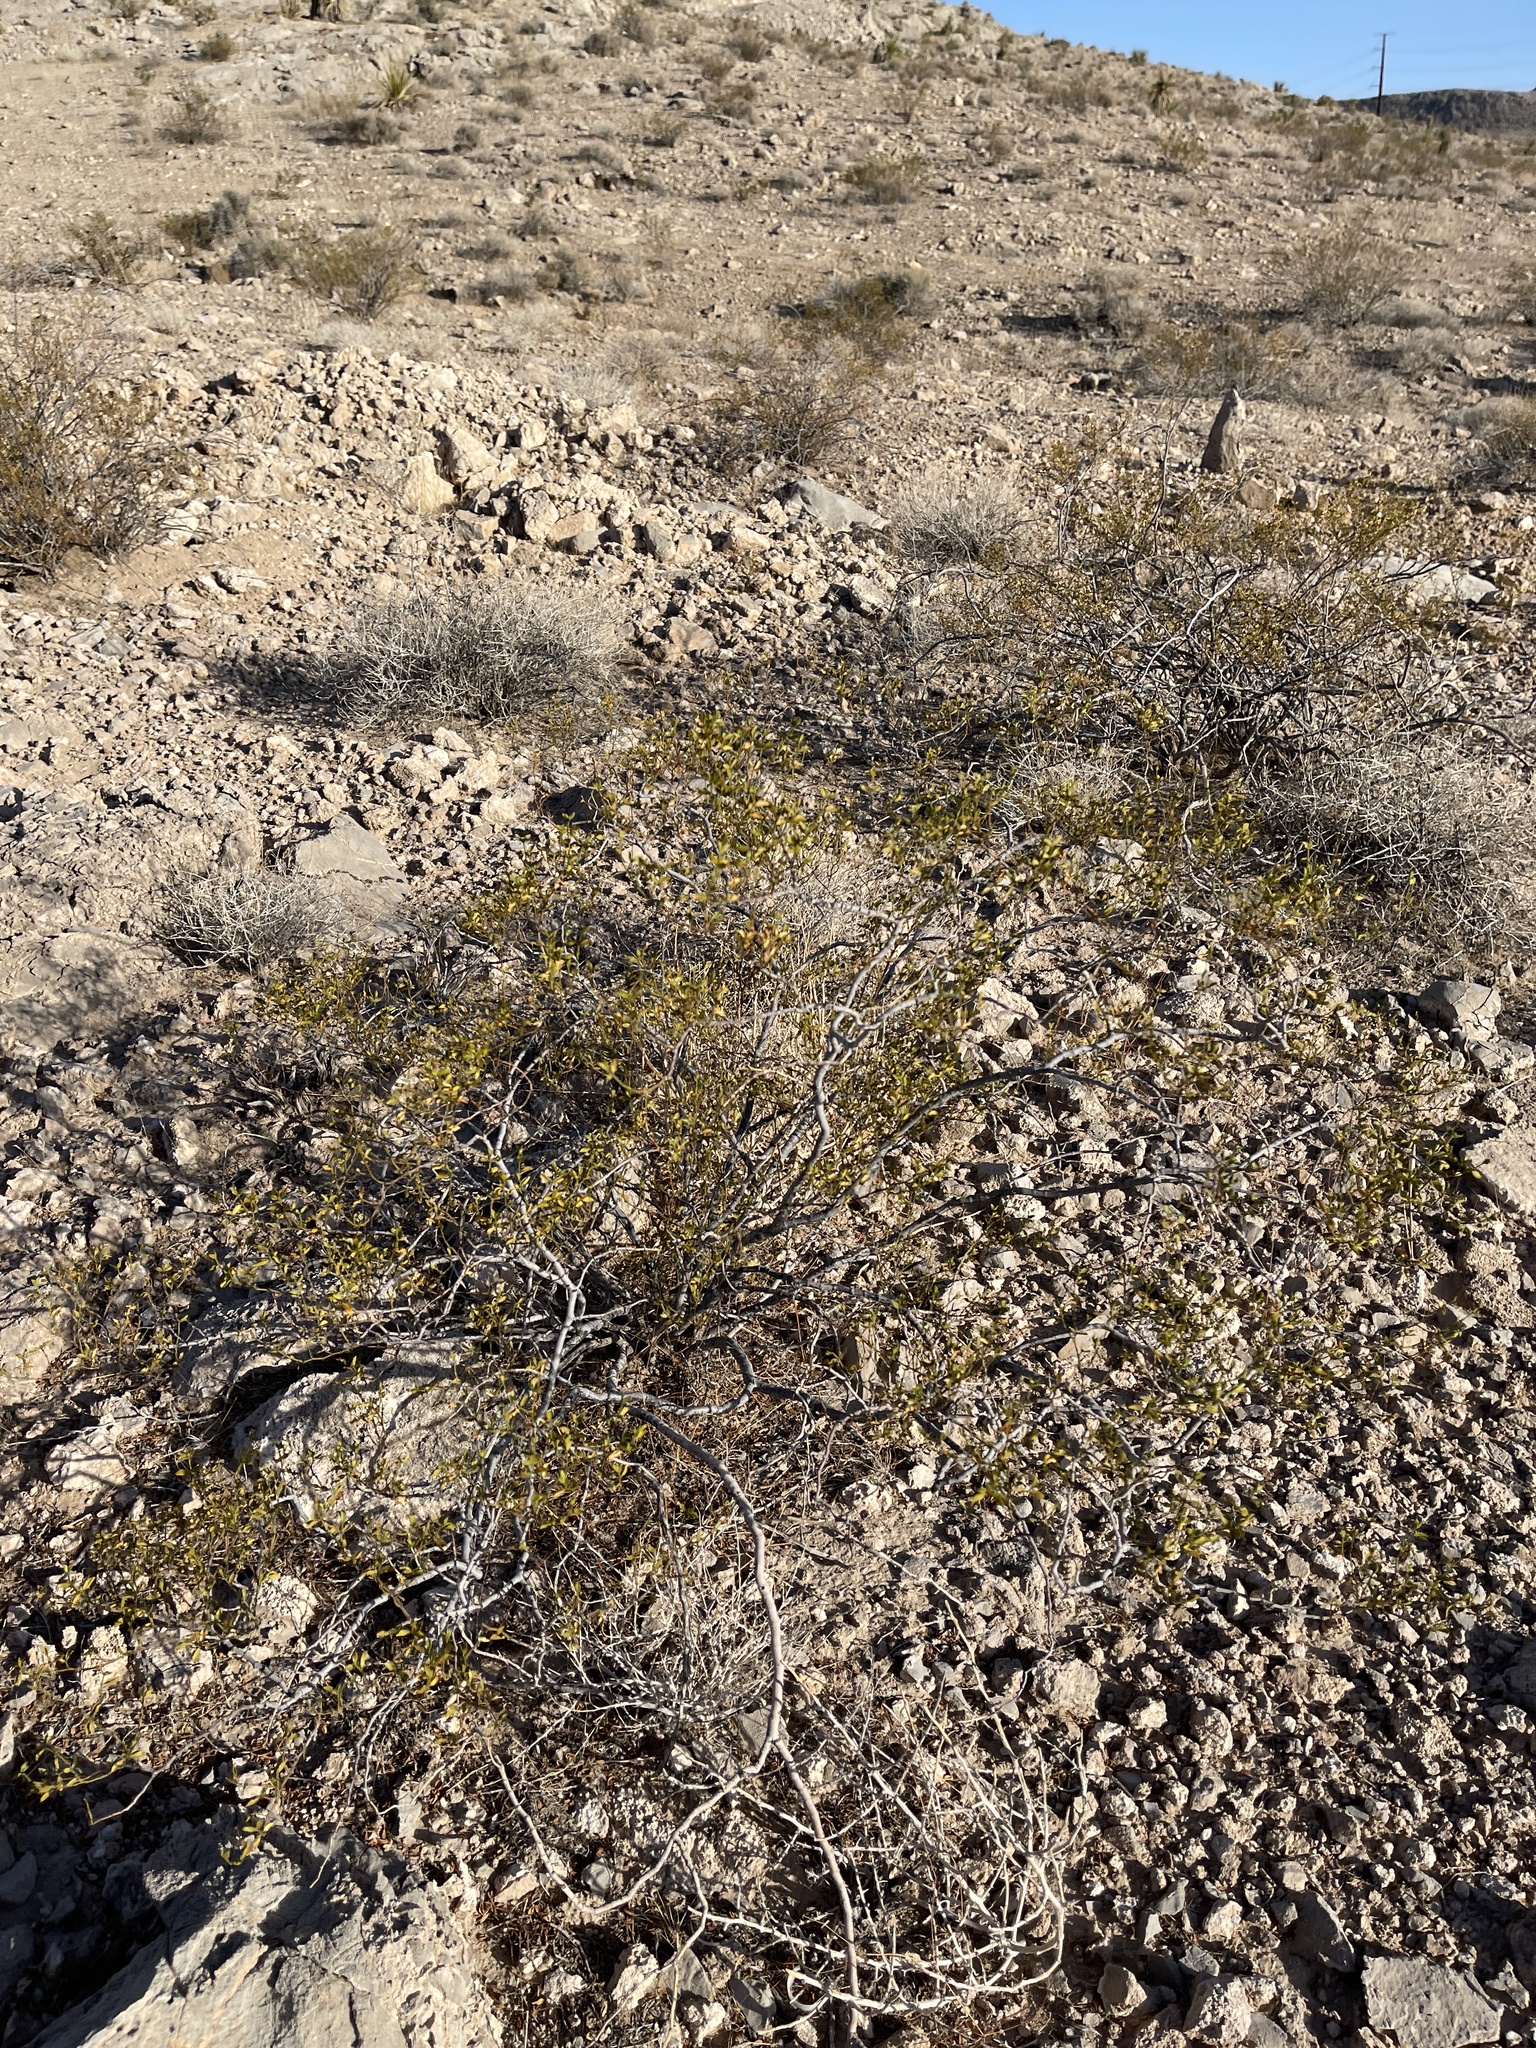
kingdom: Plantae
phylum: Tracheophyta
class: Magnoliopsida
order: Zygophyllales
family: Zygophyllaceae
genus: Larrea
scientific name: Larrea tridentata
